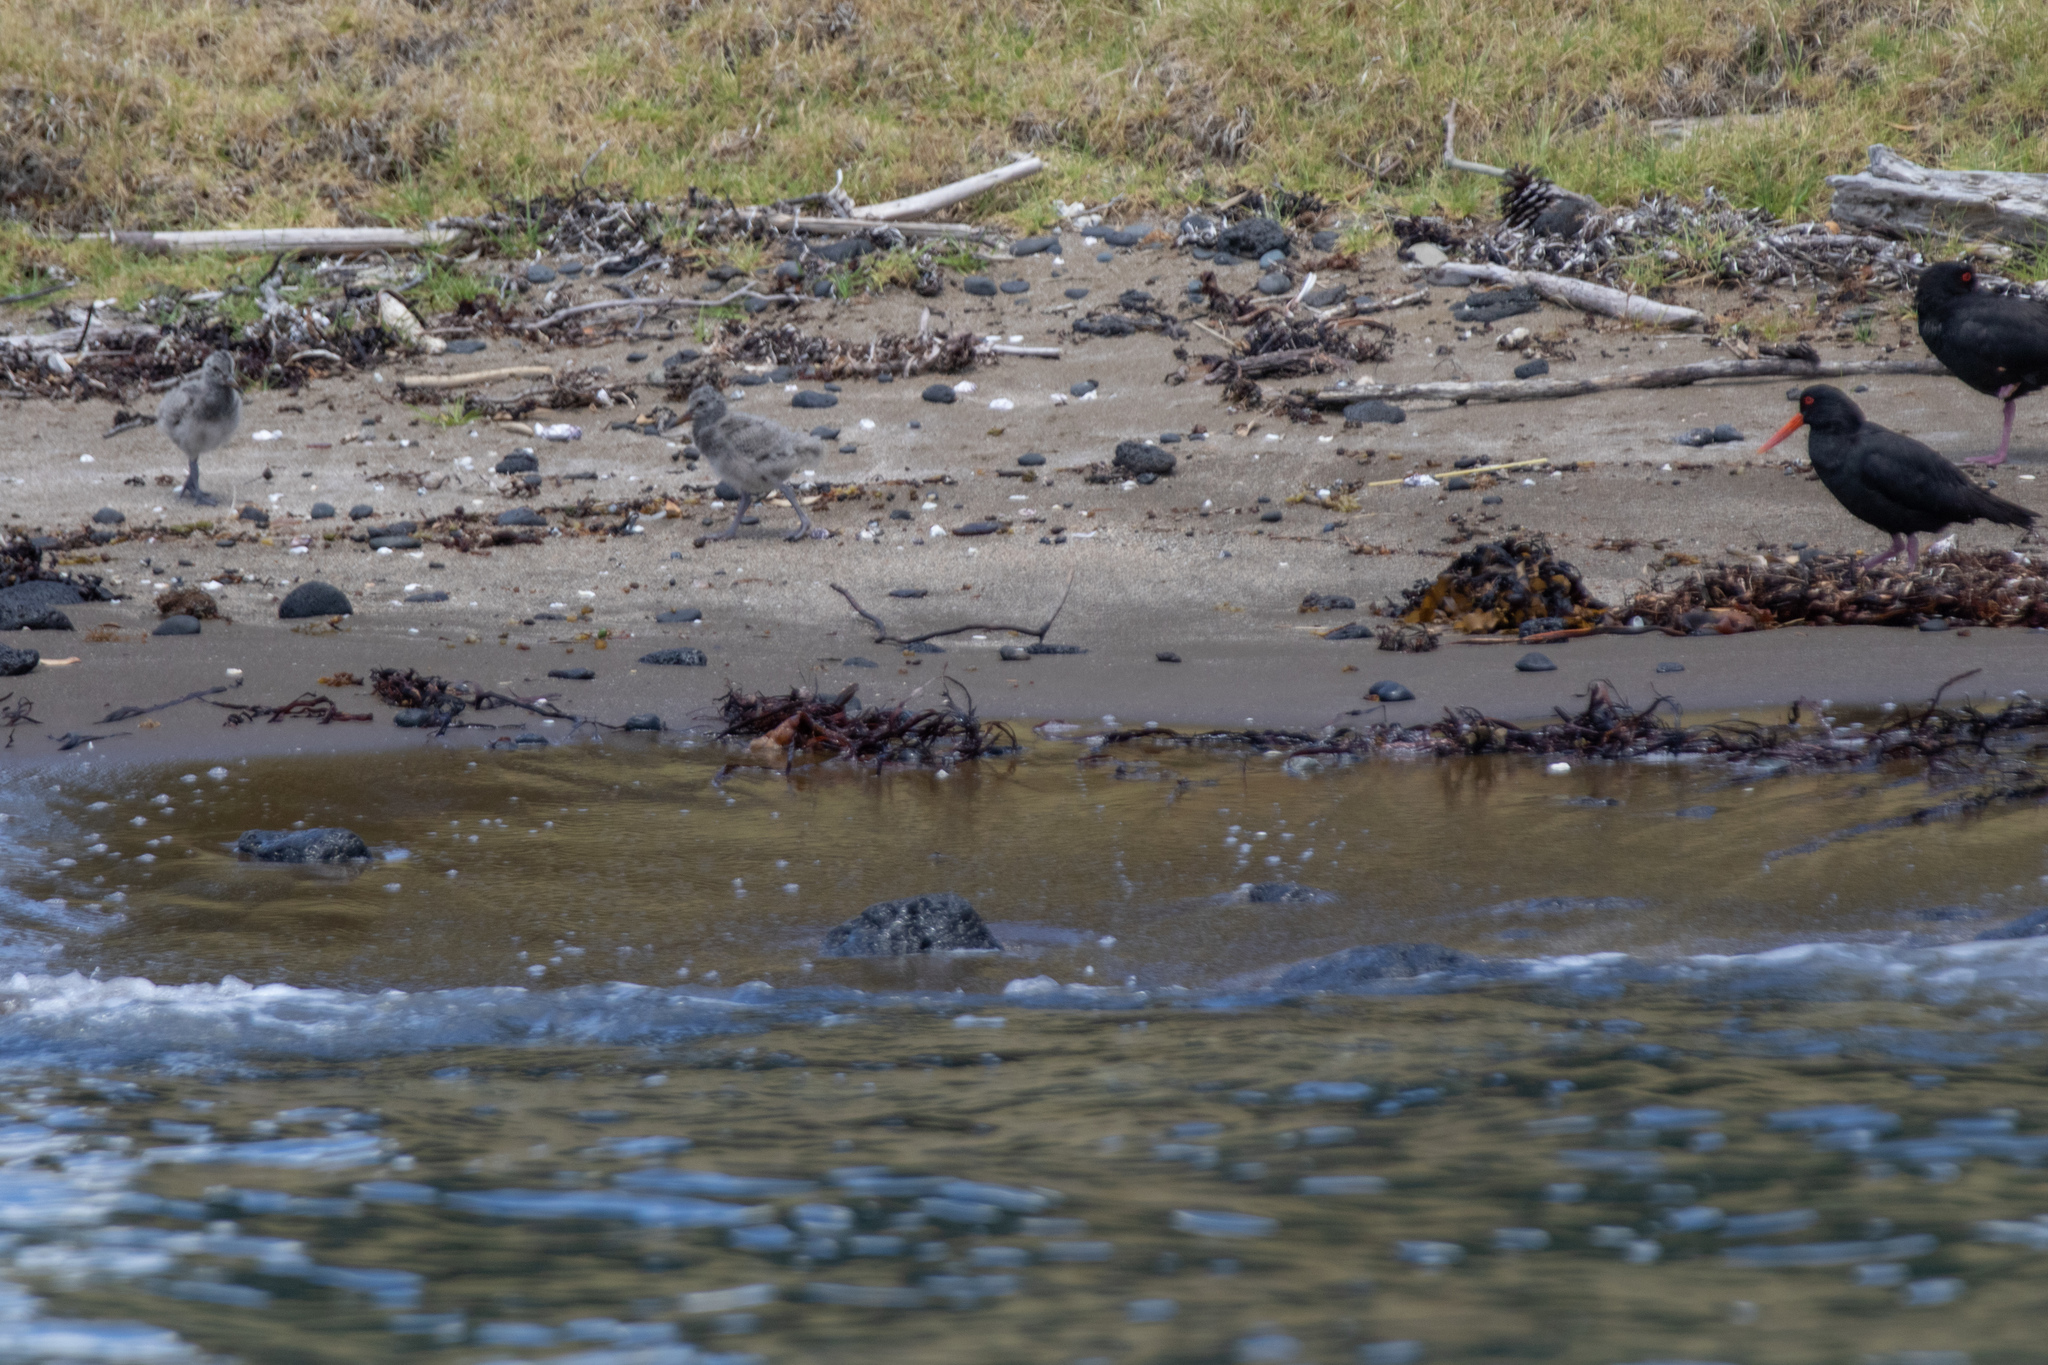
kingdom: Animalia
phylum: Chordata
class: Aves
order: Charadriiformes
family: Haematopodidae
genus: Haematopus
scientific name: Haematopus unicolor
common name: Variable oystercatcher
